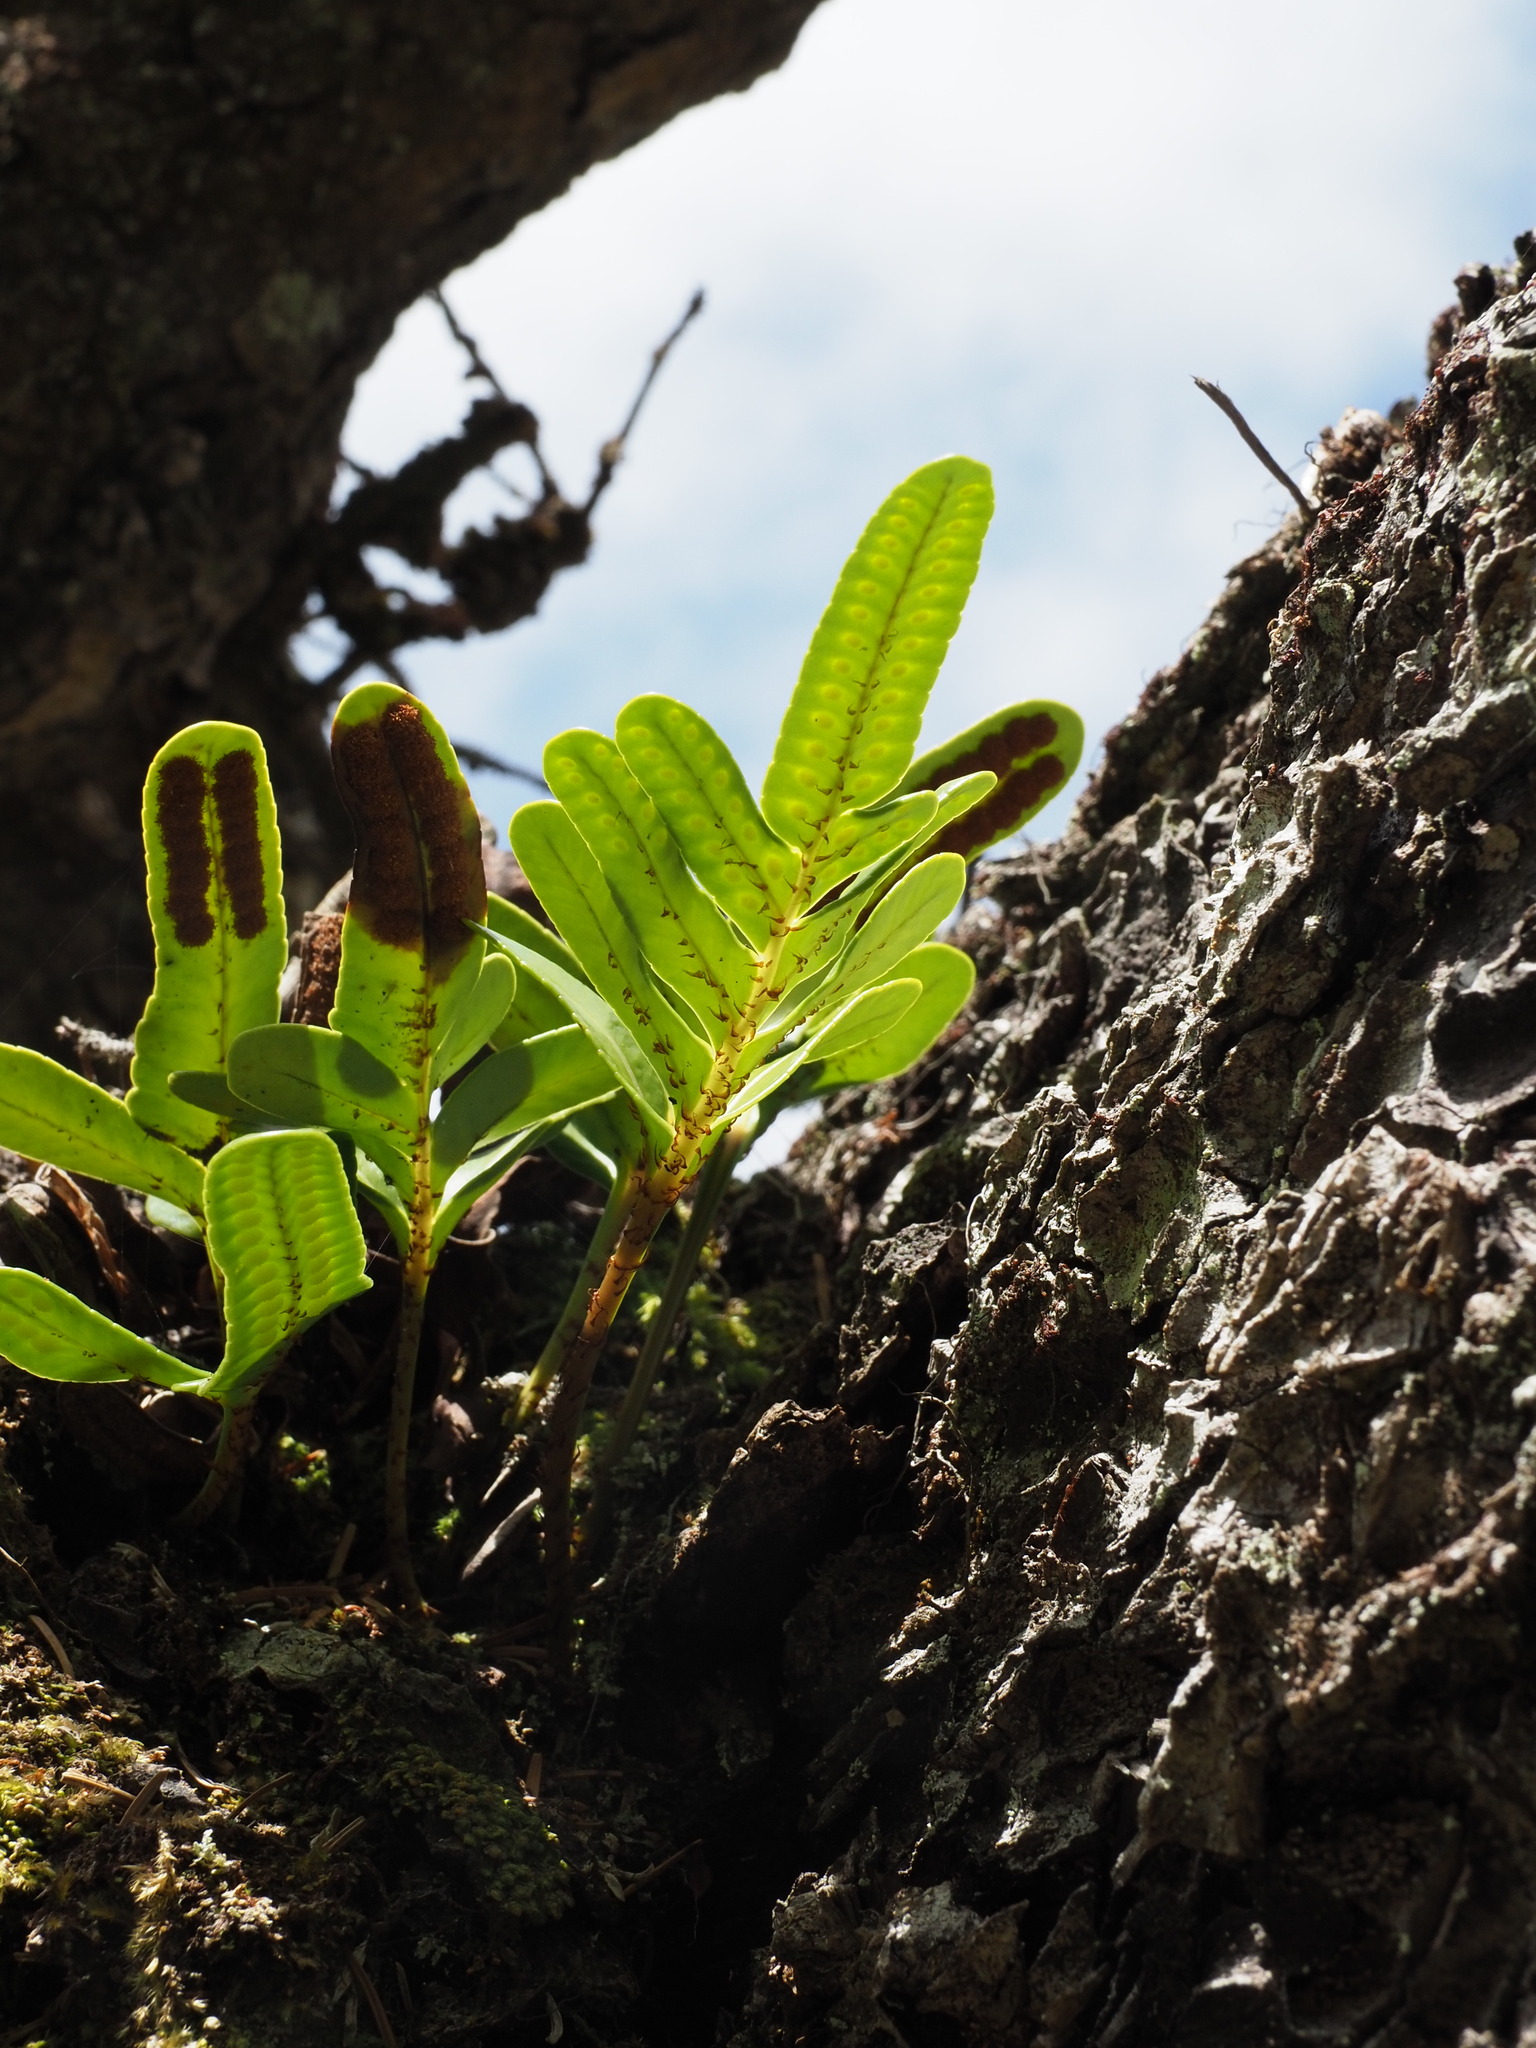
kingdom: Plantae
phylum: Tracheophyta
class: Polypodiopsida
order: Polypodiales
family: Polypodiaceae
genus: Polypodium
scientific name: Polypodium scouleri
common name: Scouler's polypody
